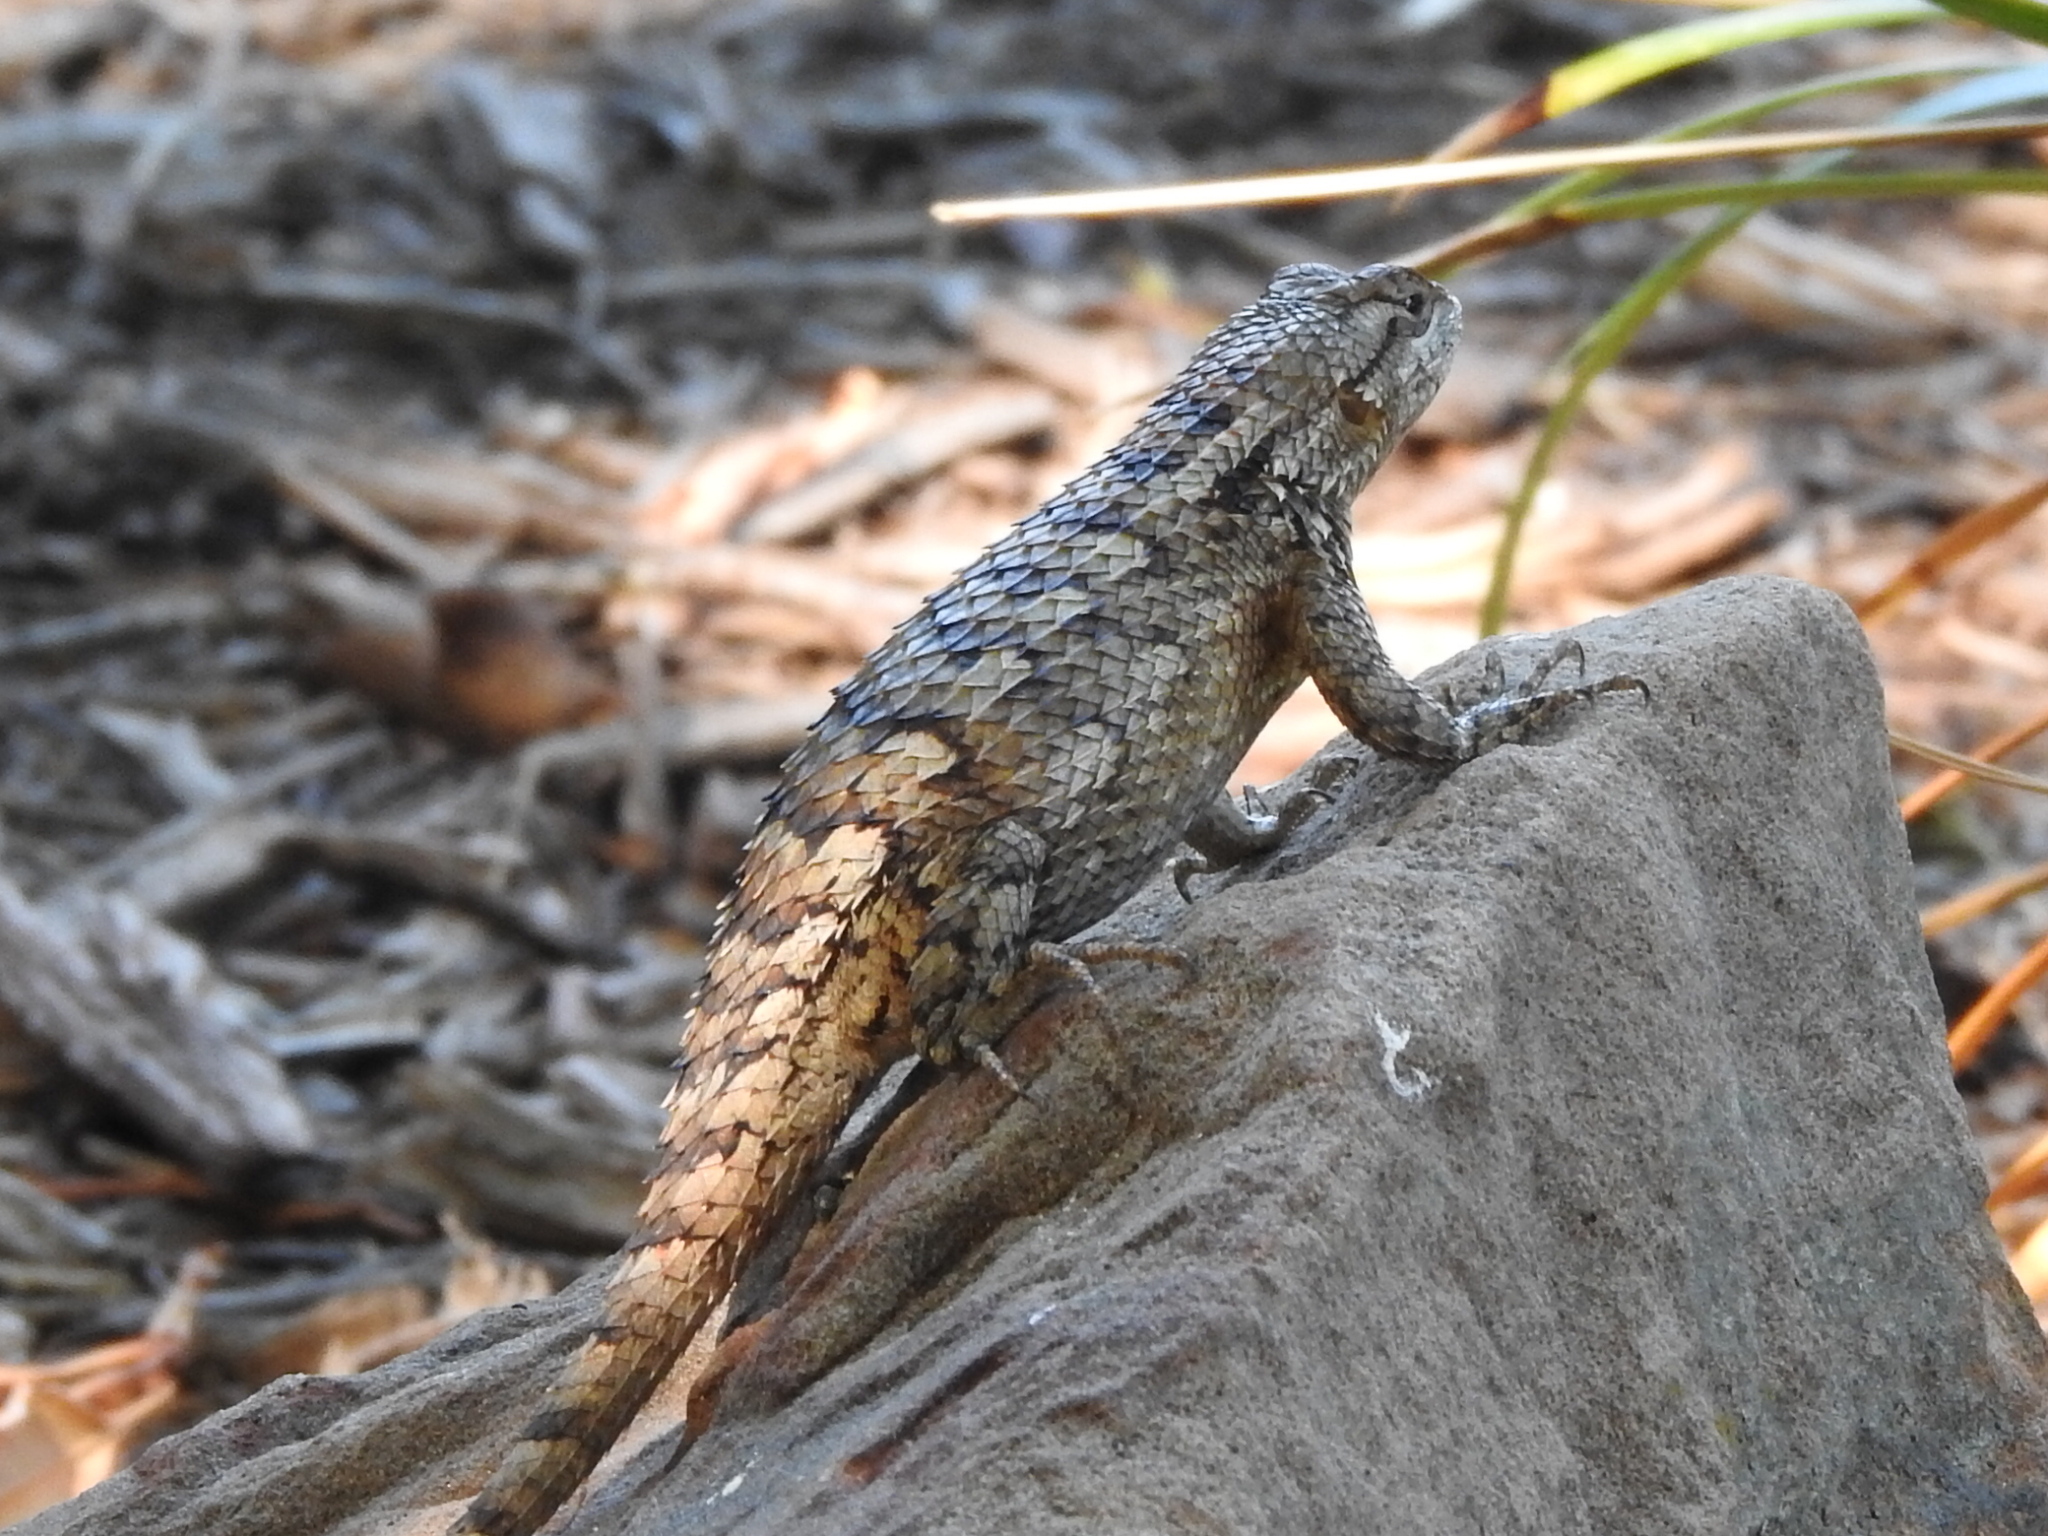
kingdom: Animalia
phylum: Chordata
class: Squamata
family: Phrynosomatidae
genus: Sceloporus
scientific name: Sceloporus olivaceus
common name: Texas spiny lizard
